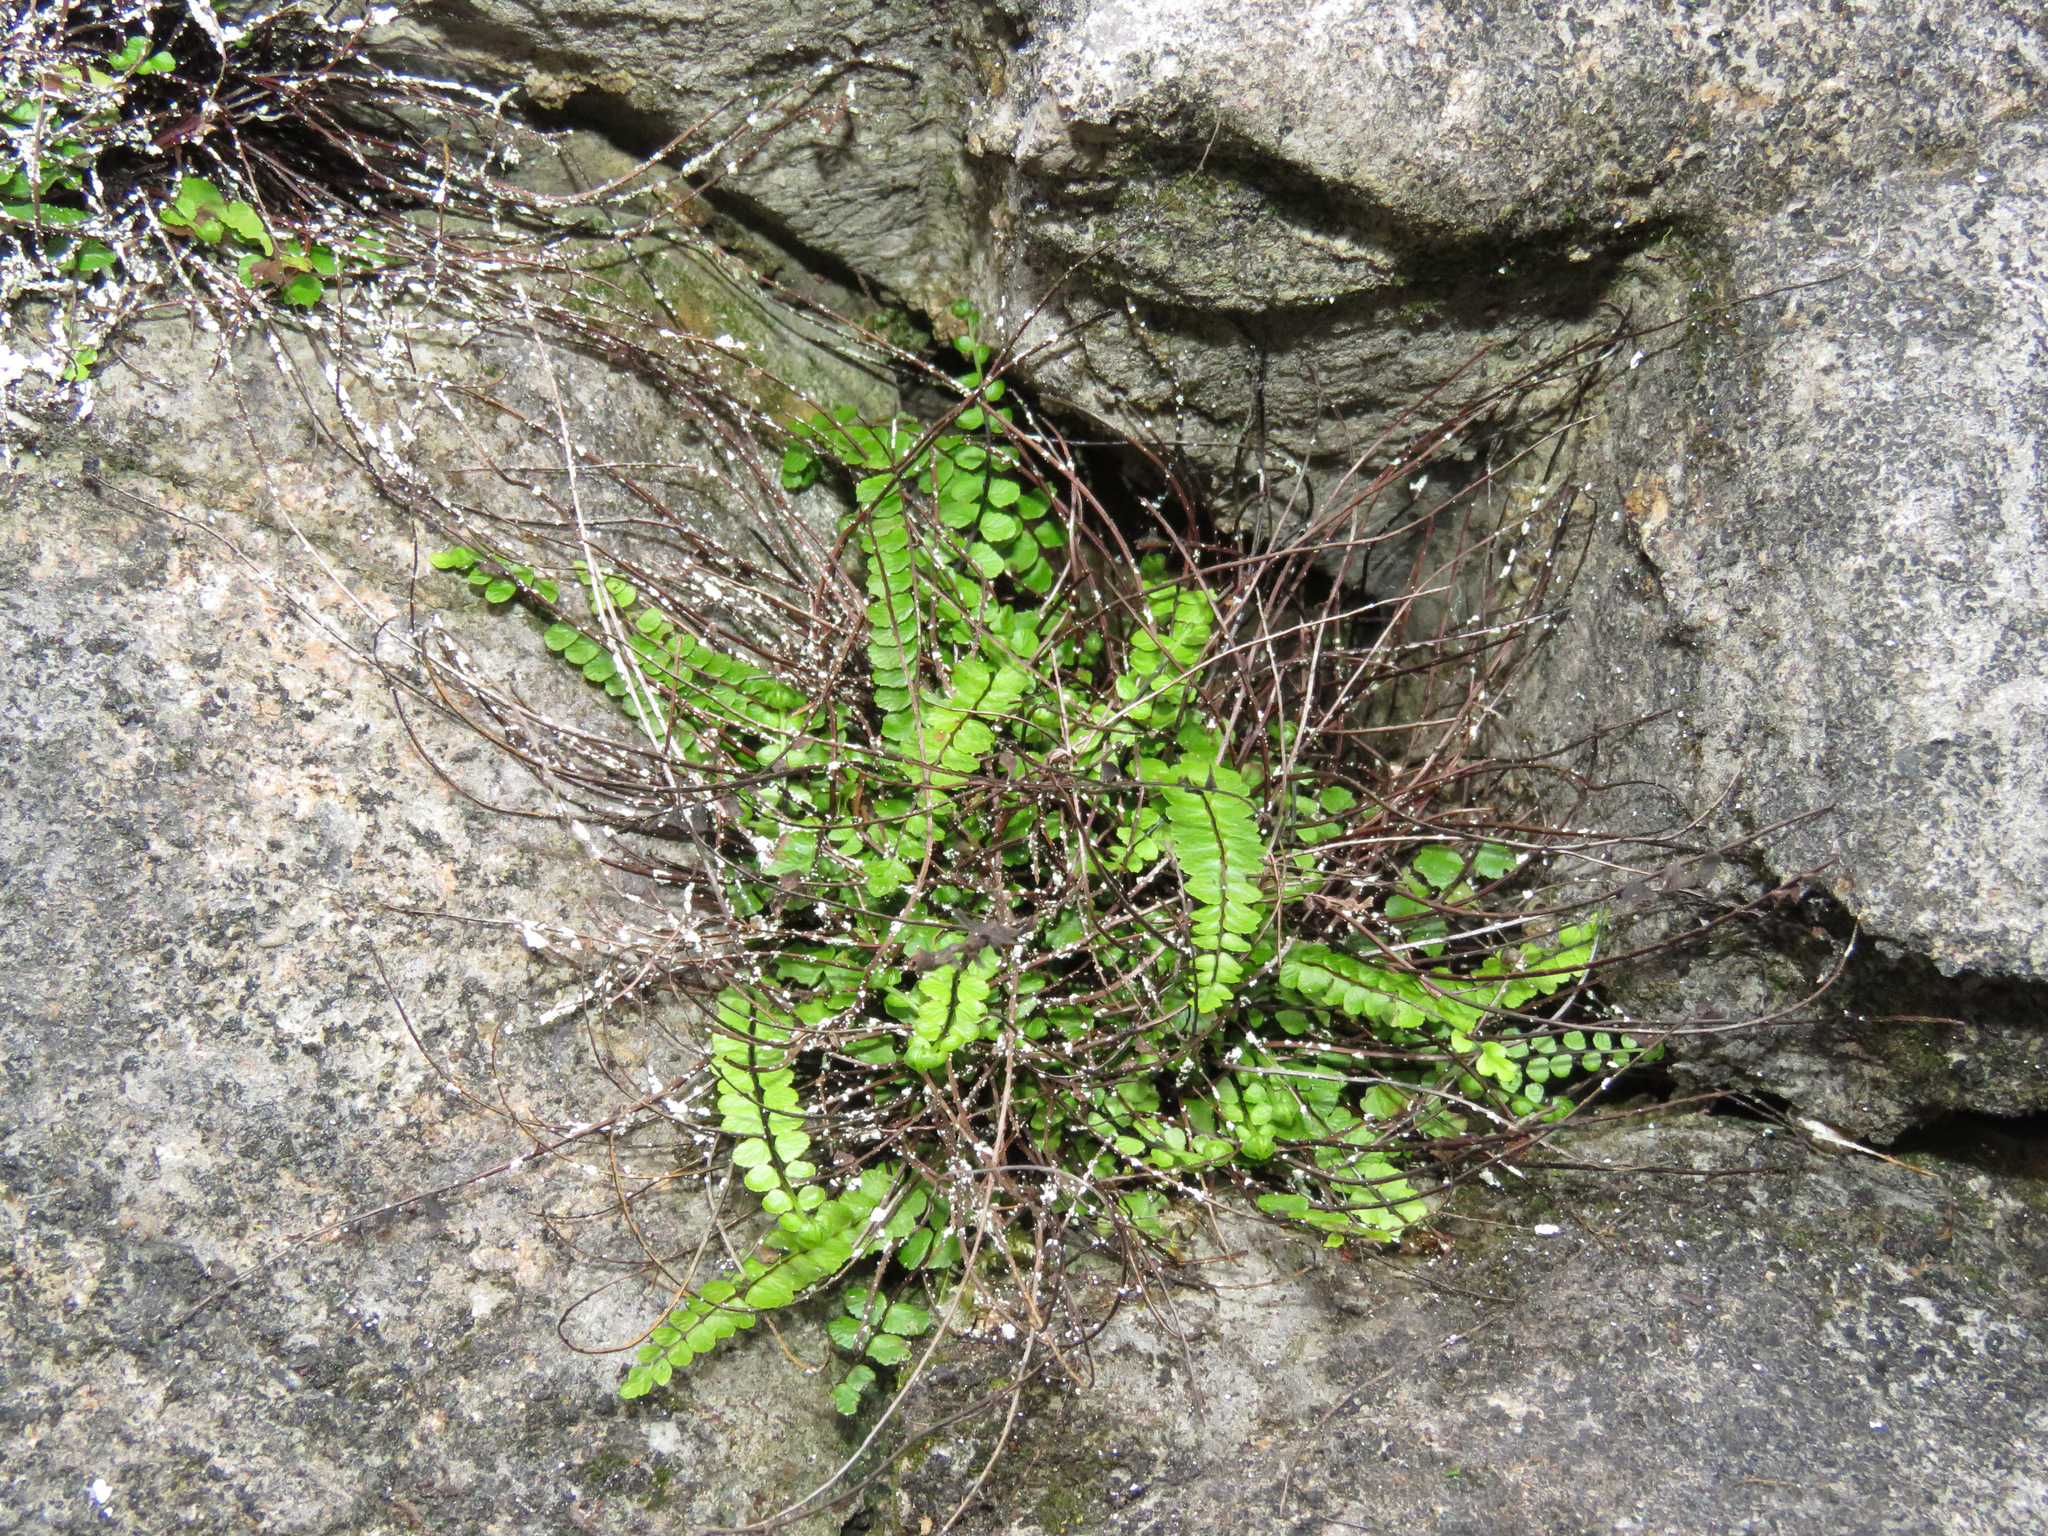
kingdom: Plantae
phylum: Tracheophyta
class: Polypodiopsida
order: Polypodiales
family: Aspleniaceae
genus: Asplenium
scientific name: Asplenium trichomanes
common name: Maidenhair spleenwort
